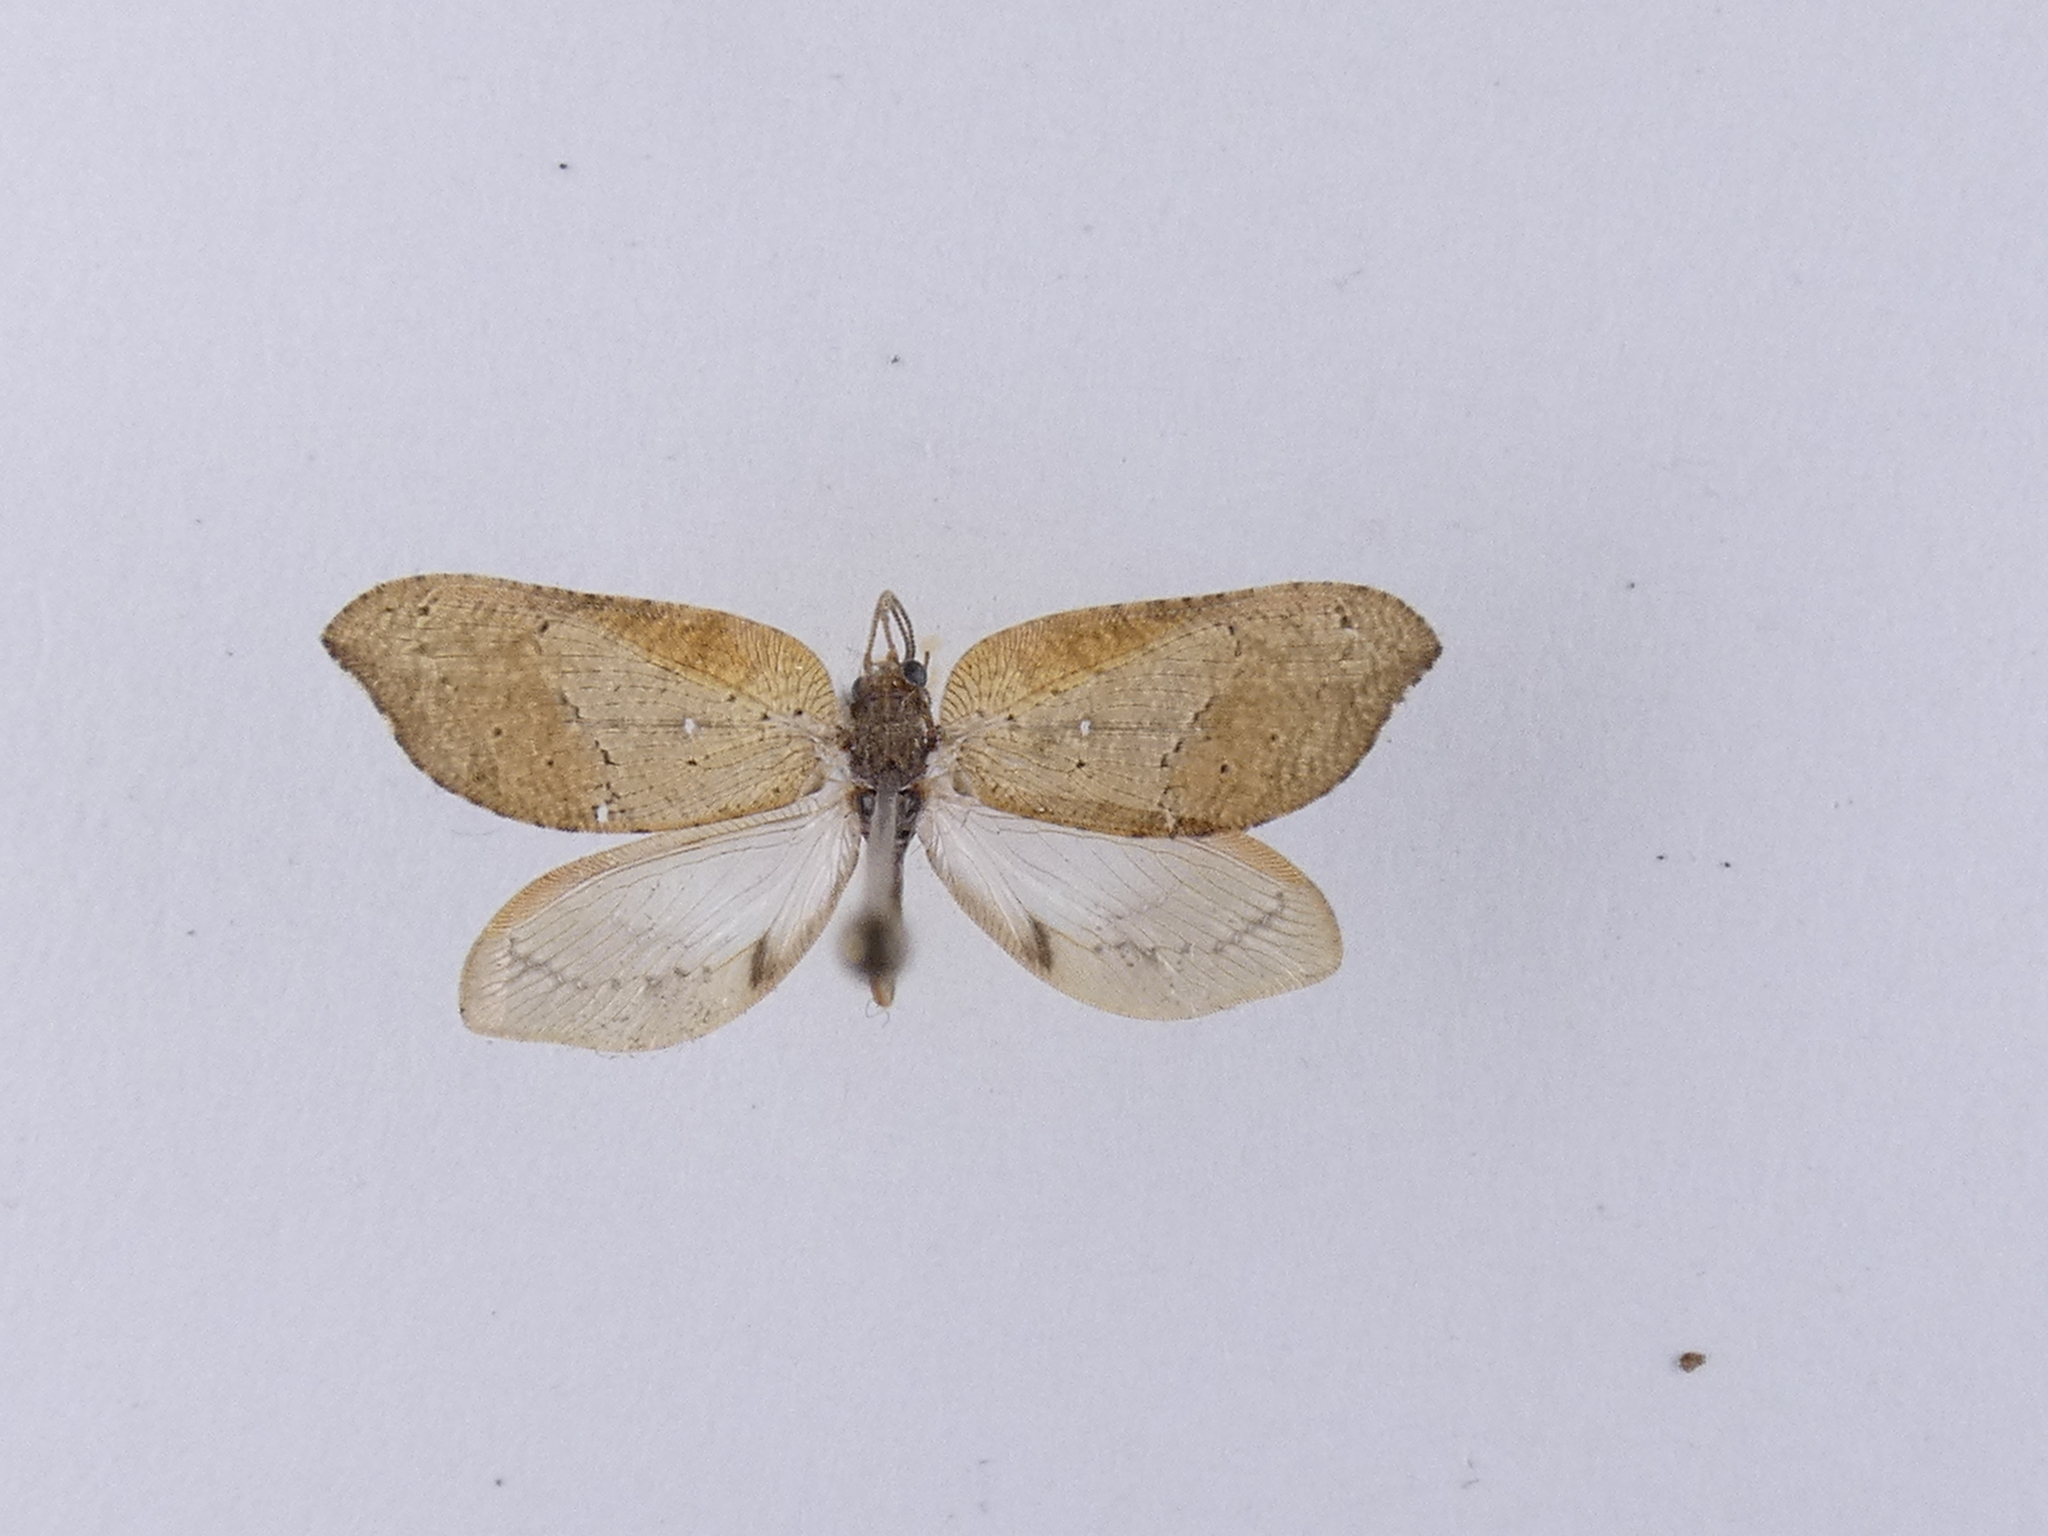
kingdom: Animalia
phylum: Arthropoda
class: Insecta
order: Neuroptera
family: Hemerobiidae
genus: Drepanacra
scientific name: Drepanacra binocula
